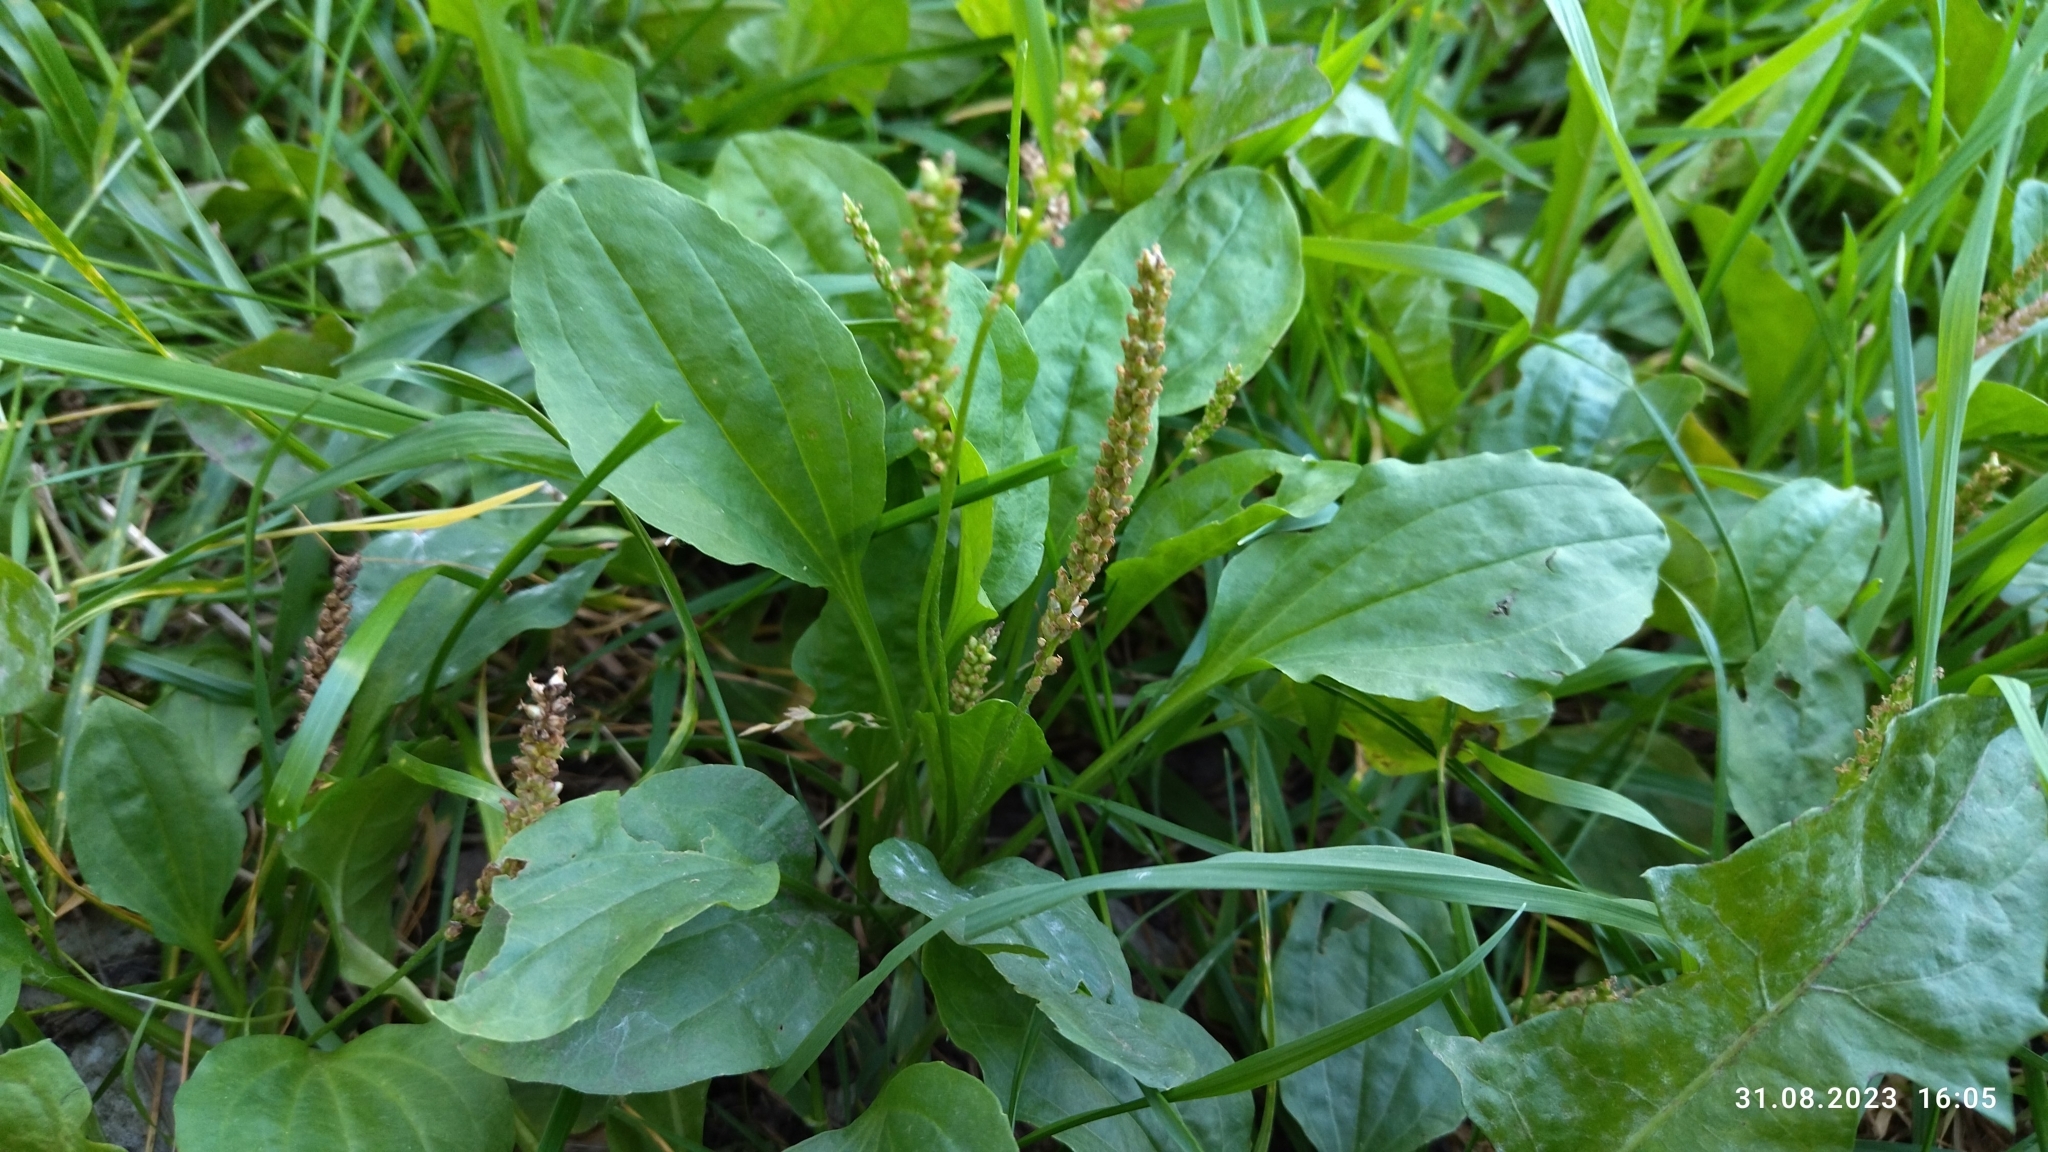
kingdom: Plantae
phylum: Tracheophyta
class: Magnoliopsida
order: Lamiales
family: Plantaginaceae
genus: Plantago
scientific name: Plantago major
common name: Common plantain
